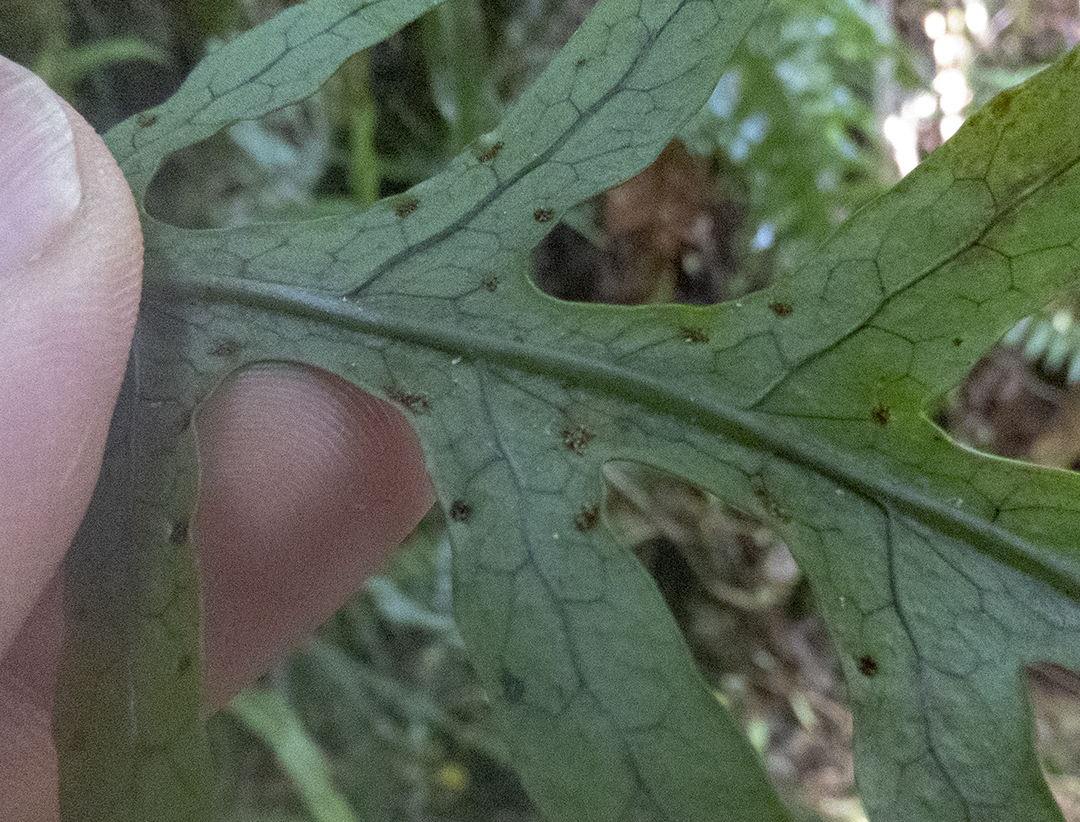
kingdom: Plantae
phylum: Tracheophyta
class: Polypodiopsida
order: Polypodiales
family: Polypodiaceae
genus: Lecanopteris
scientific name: Lecanopteris scandens
